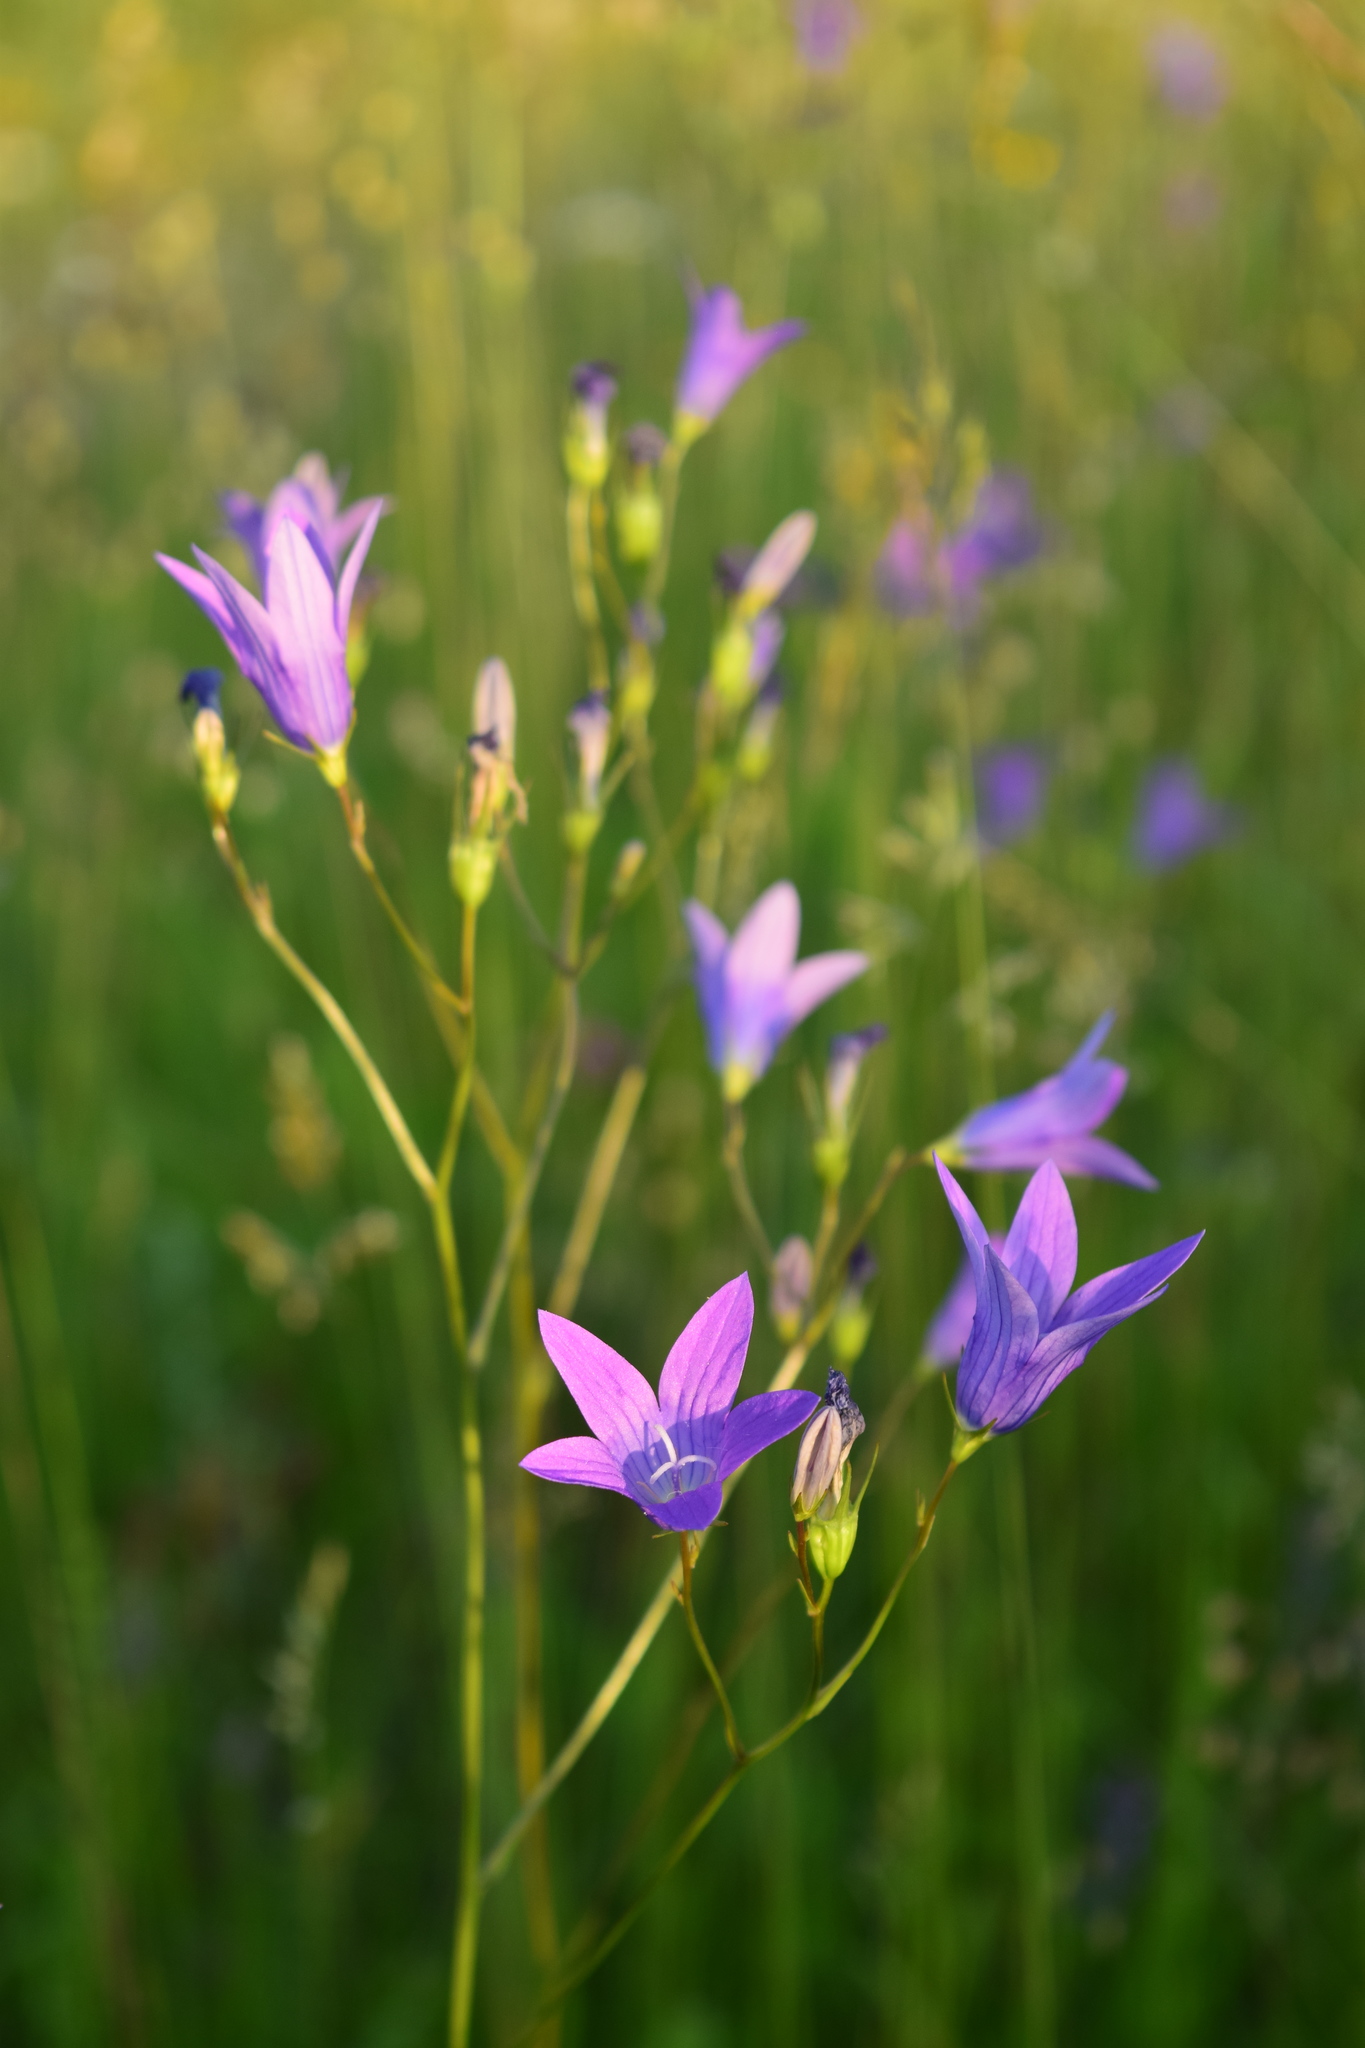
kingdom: Plantae
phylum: Tracheophyta
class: Magnoliopsida
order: Asterales
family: Campanulaceae
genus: Campanula
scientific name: Campanula patula
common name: Spreading bellflower
